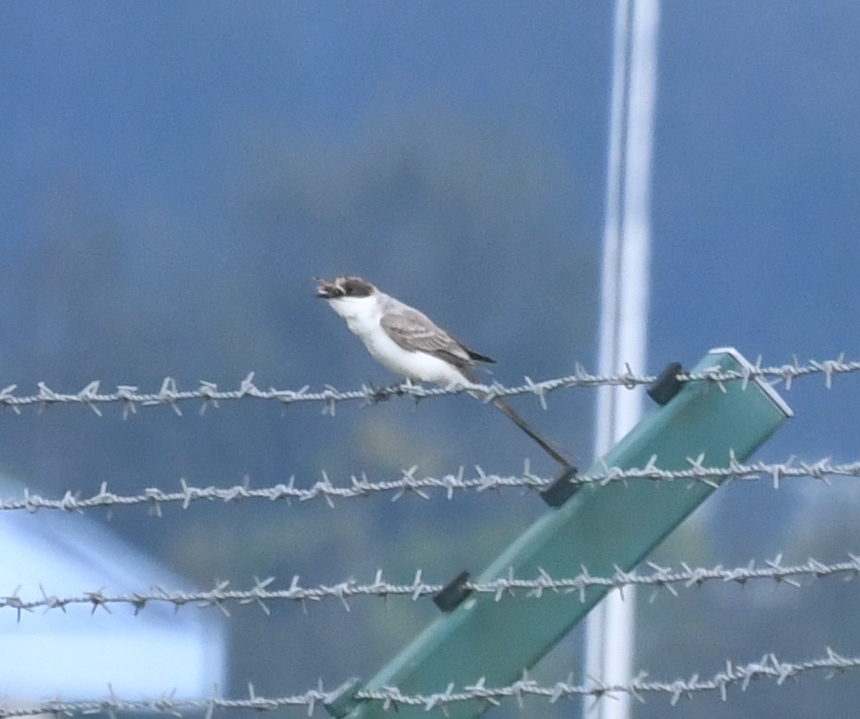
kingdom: Animalia
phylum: Chordata
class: Aves
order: Passeriformes
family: Tyrannidae
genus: Tyrannus
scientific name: Tyrannus savana
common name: Fork-tailed flycatcher
